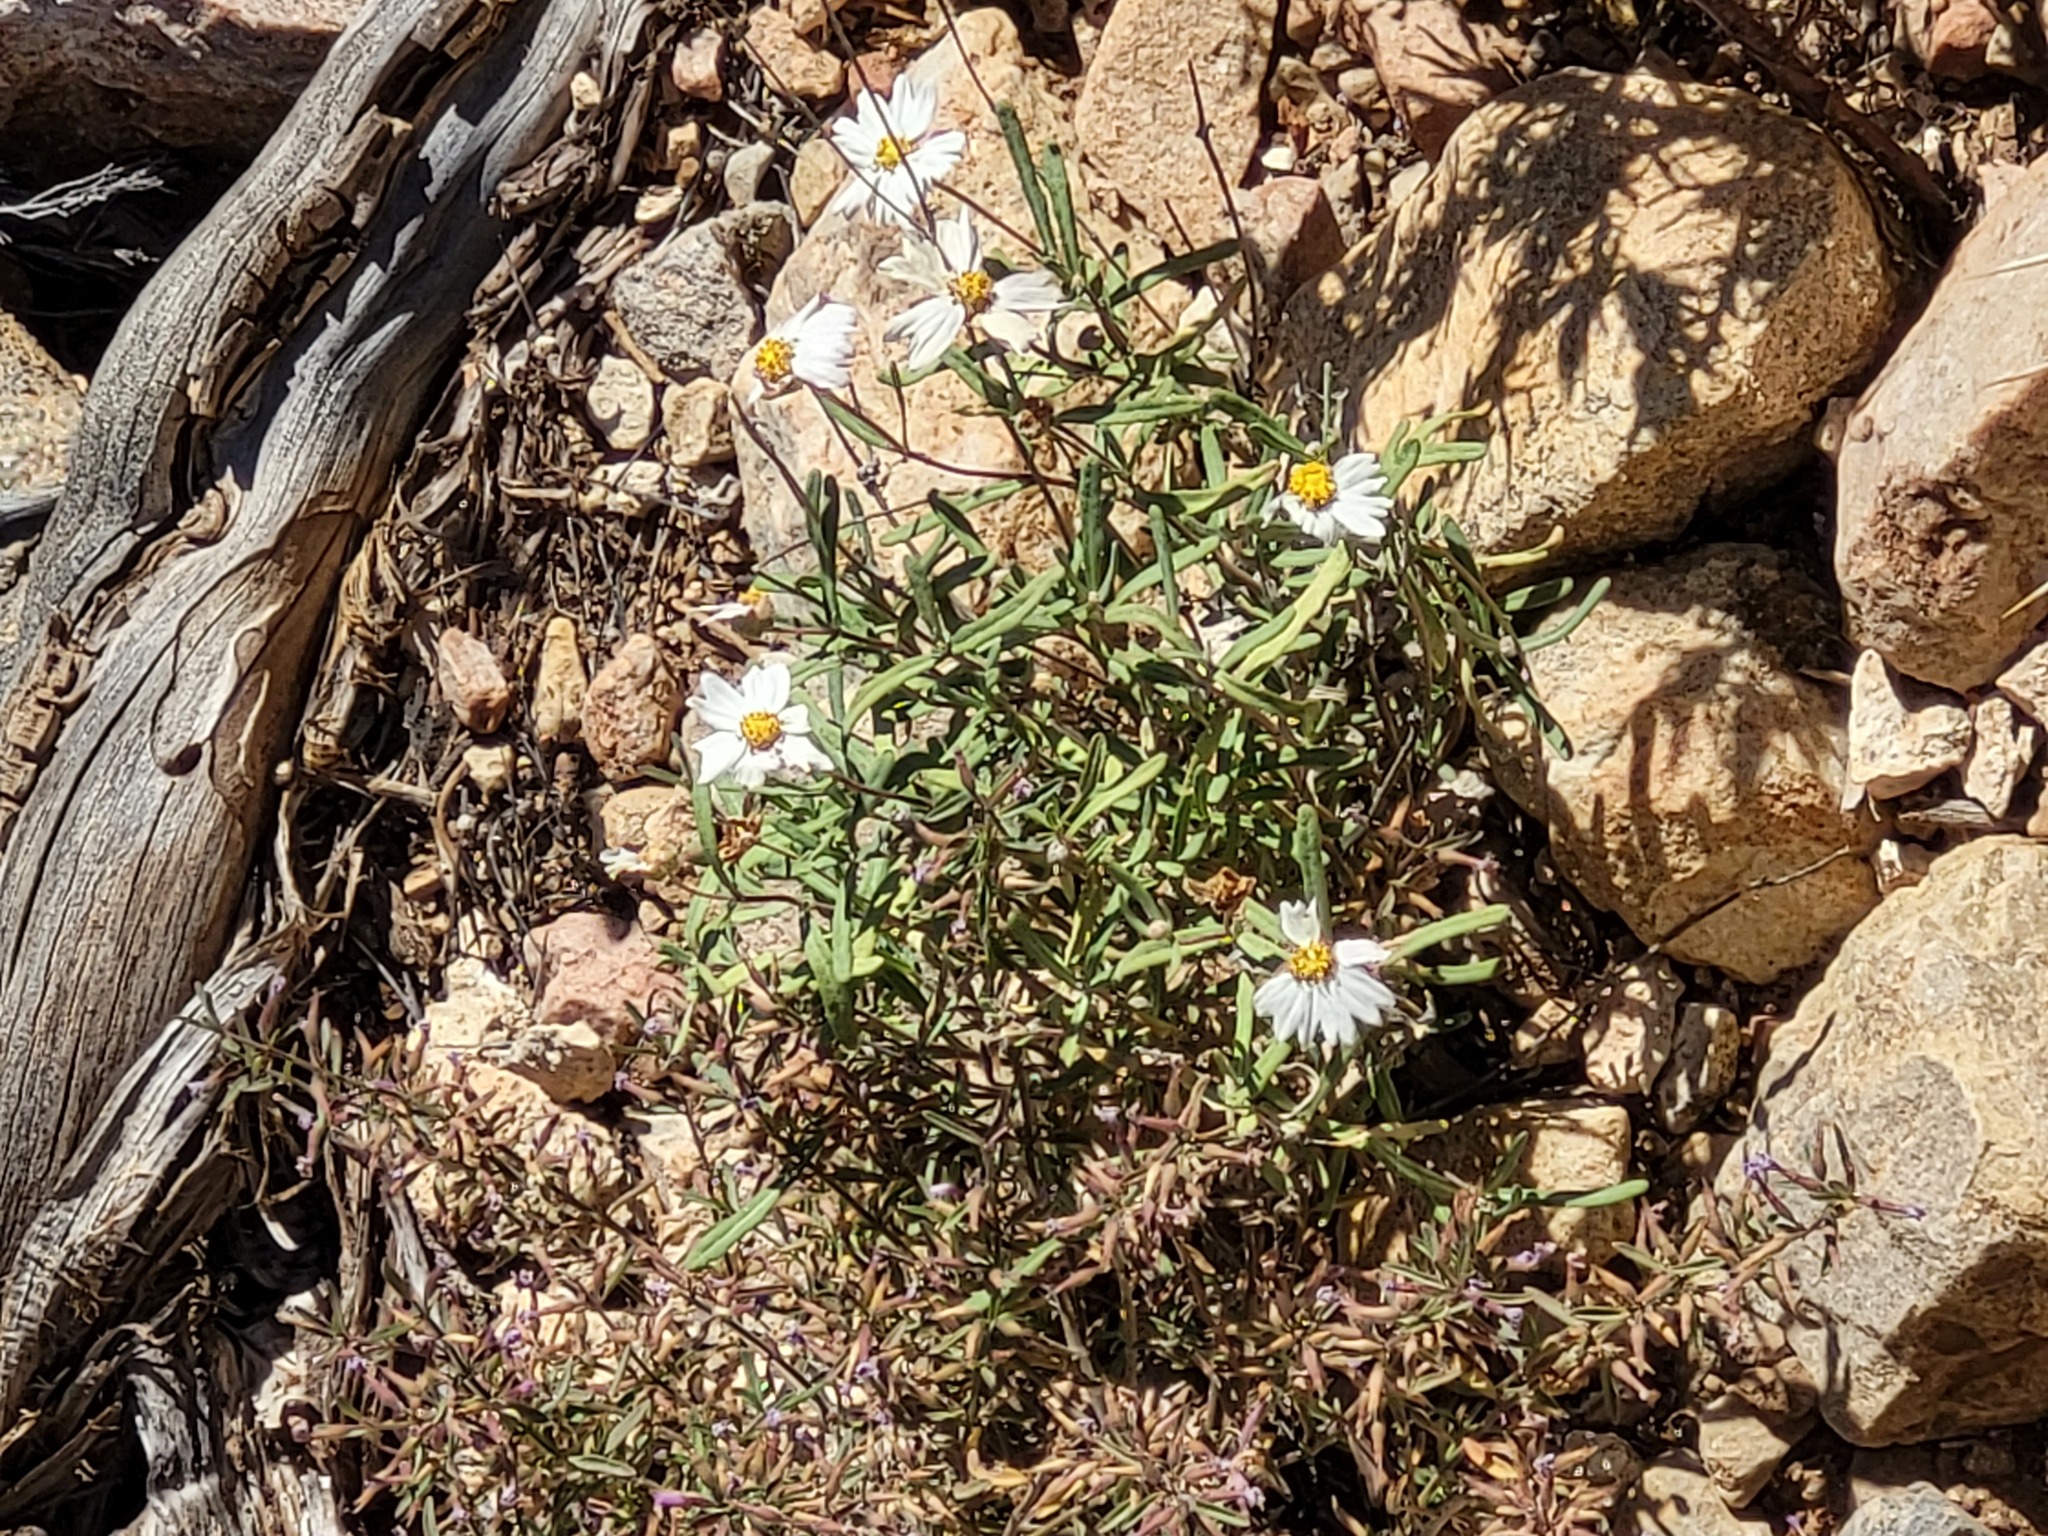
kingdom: Plantae
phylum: Tracheophyta
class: Magnoliopsida
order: Asterales
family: Asteraceae
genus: Melampodium
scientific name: Melampodium leucanthum
